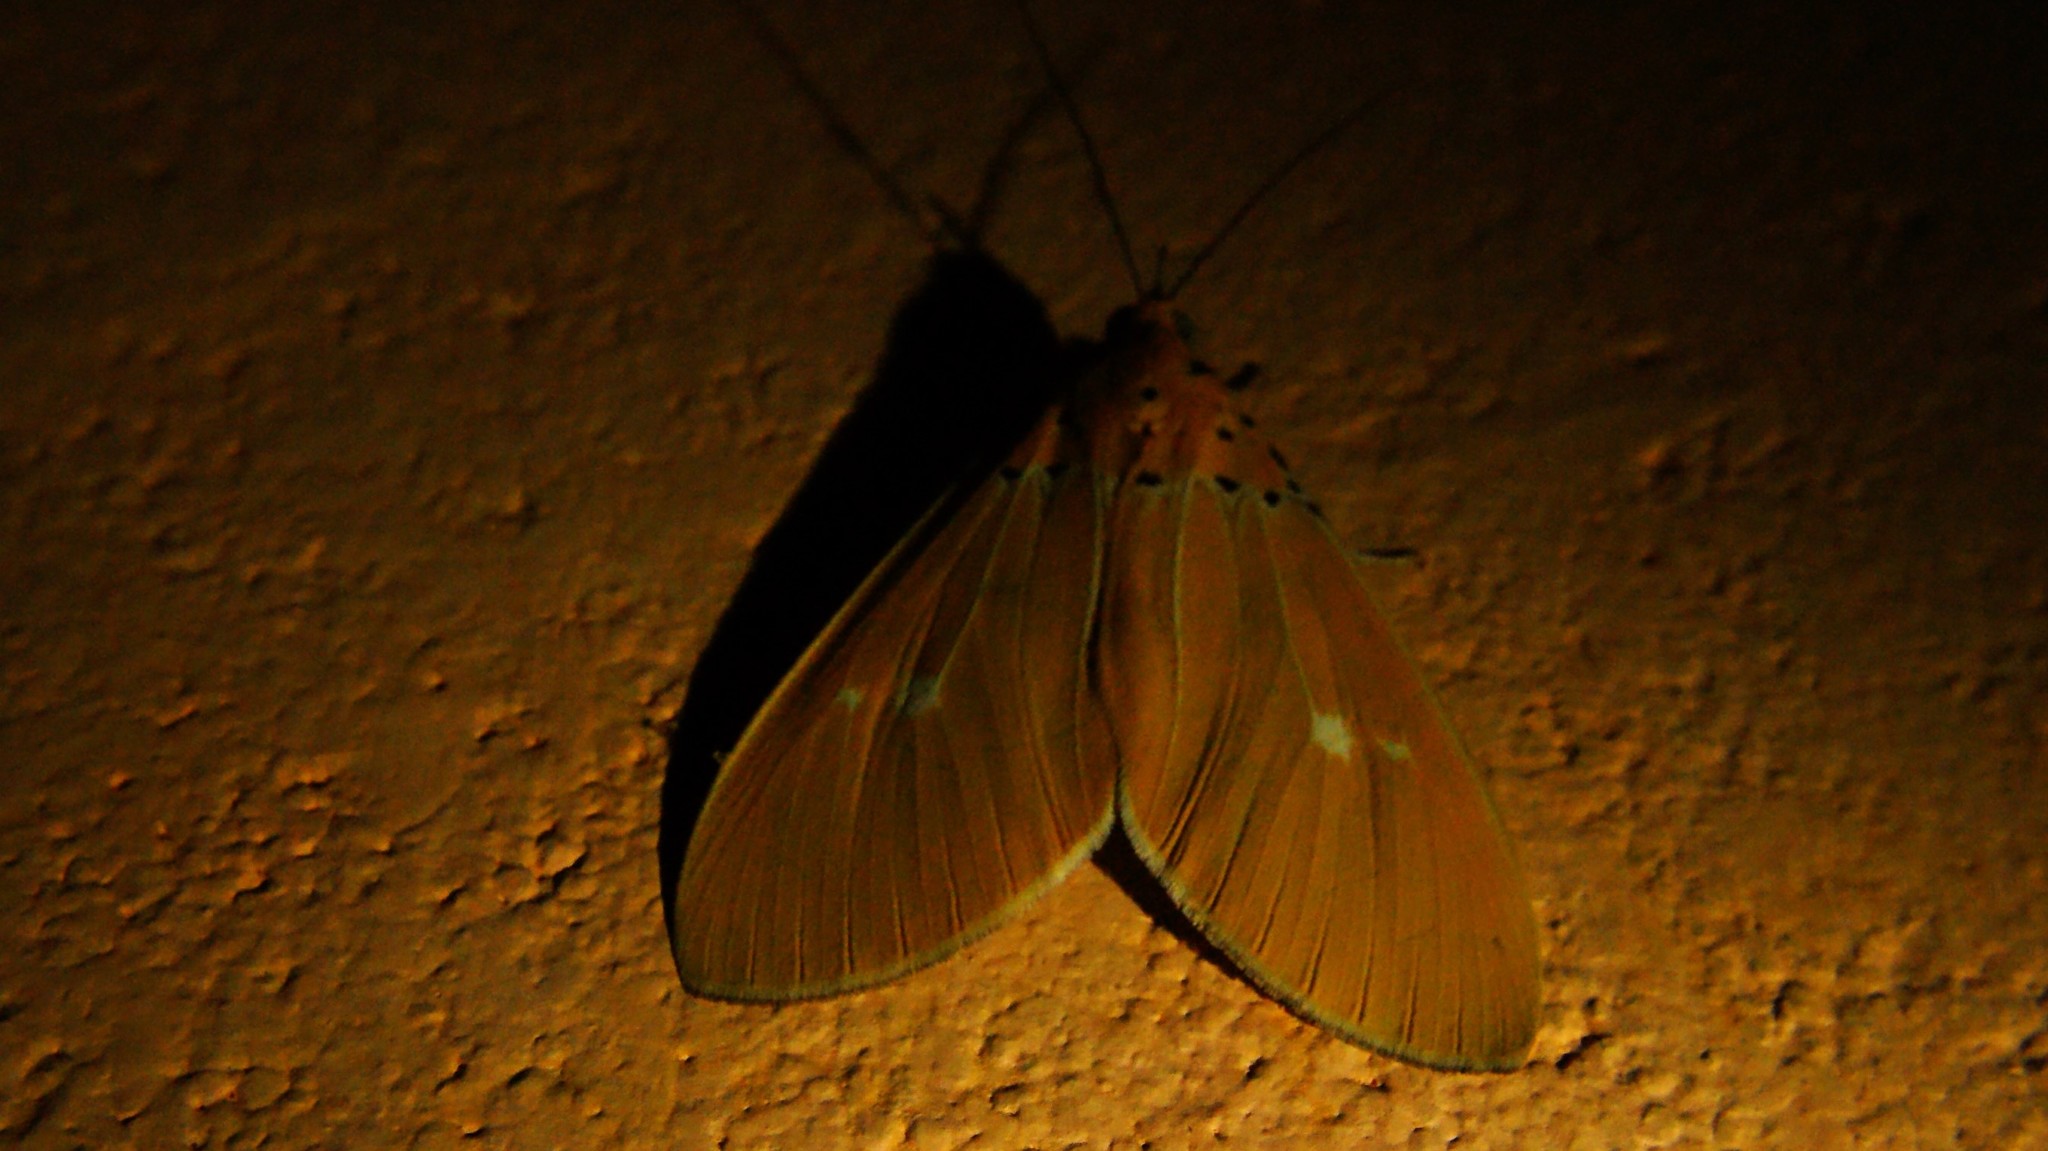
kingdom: Animalia
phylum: Arthropoda
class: Insecta
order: Lepidoptera
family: Erebidae
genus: Asota
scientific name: Asota sericea
